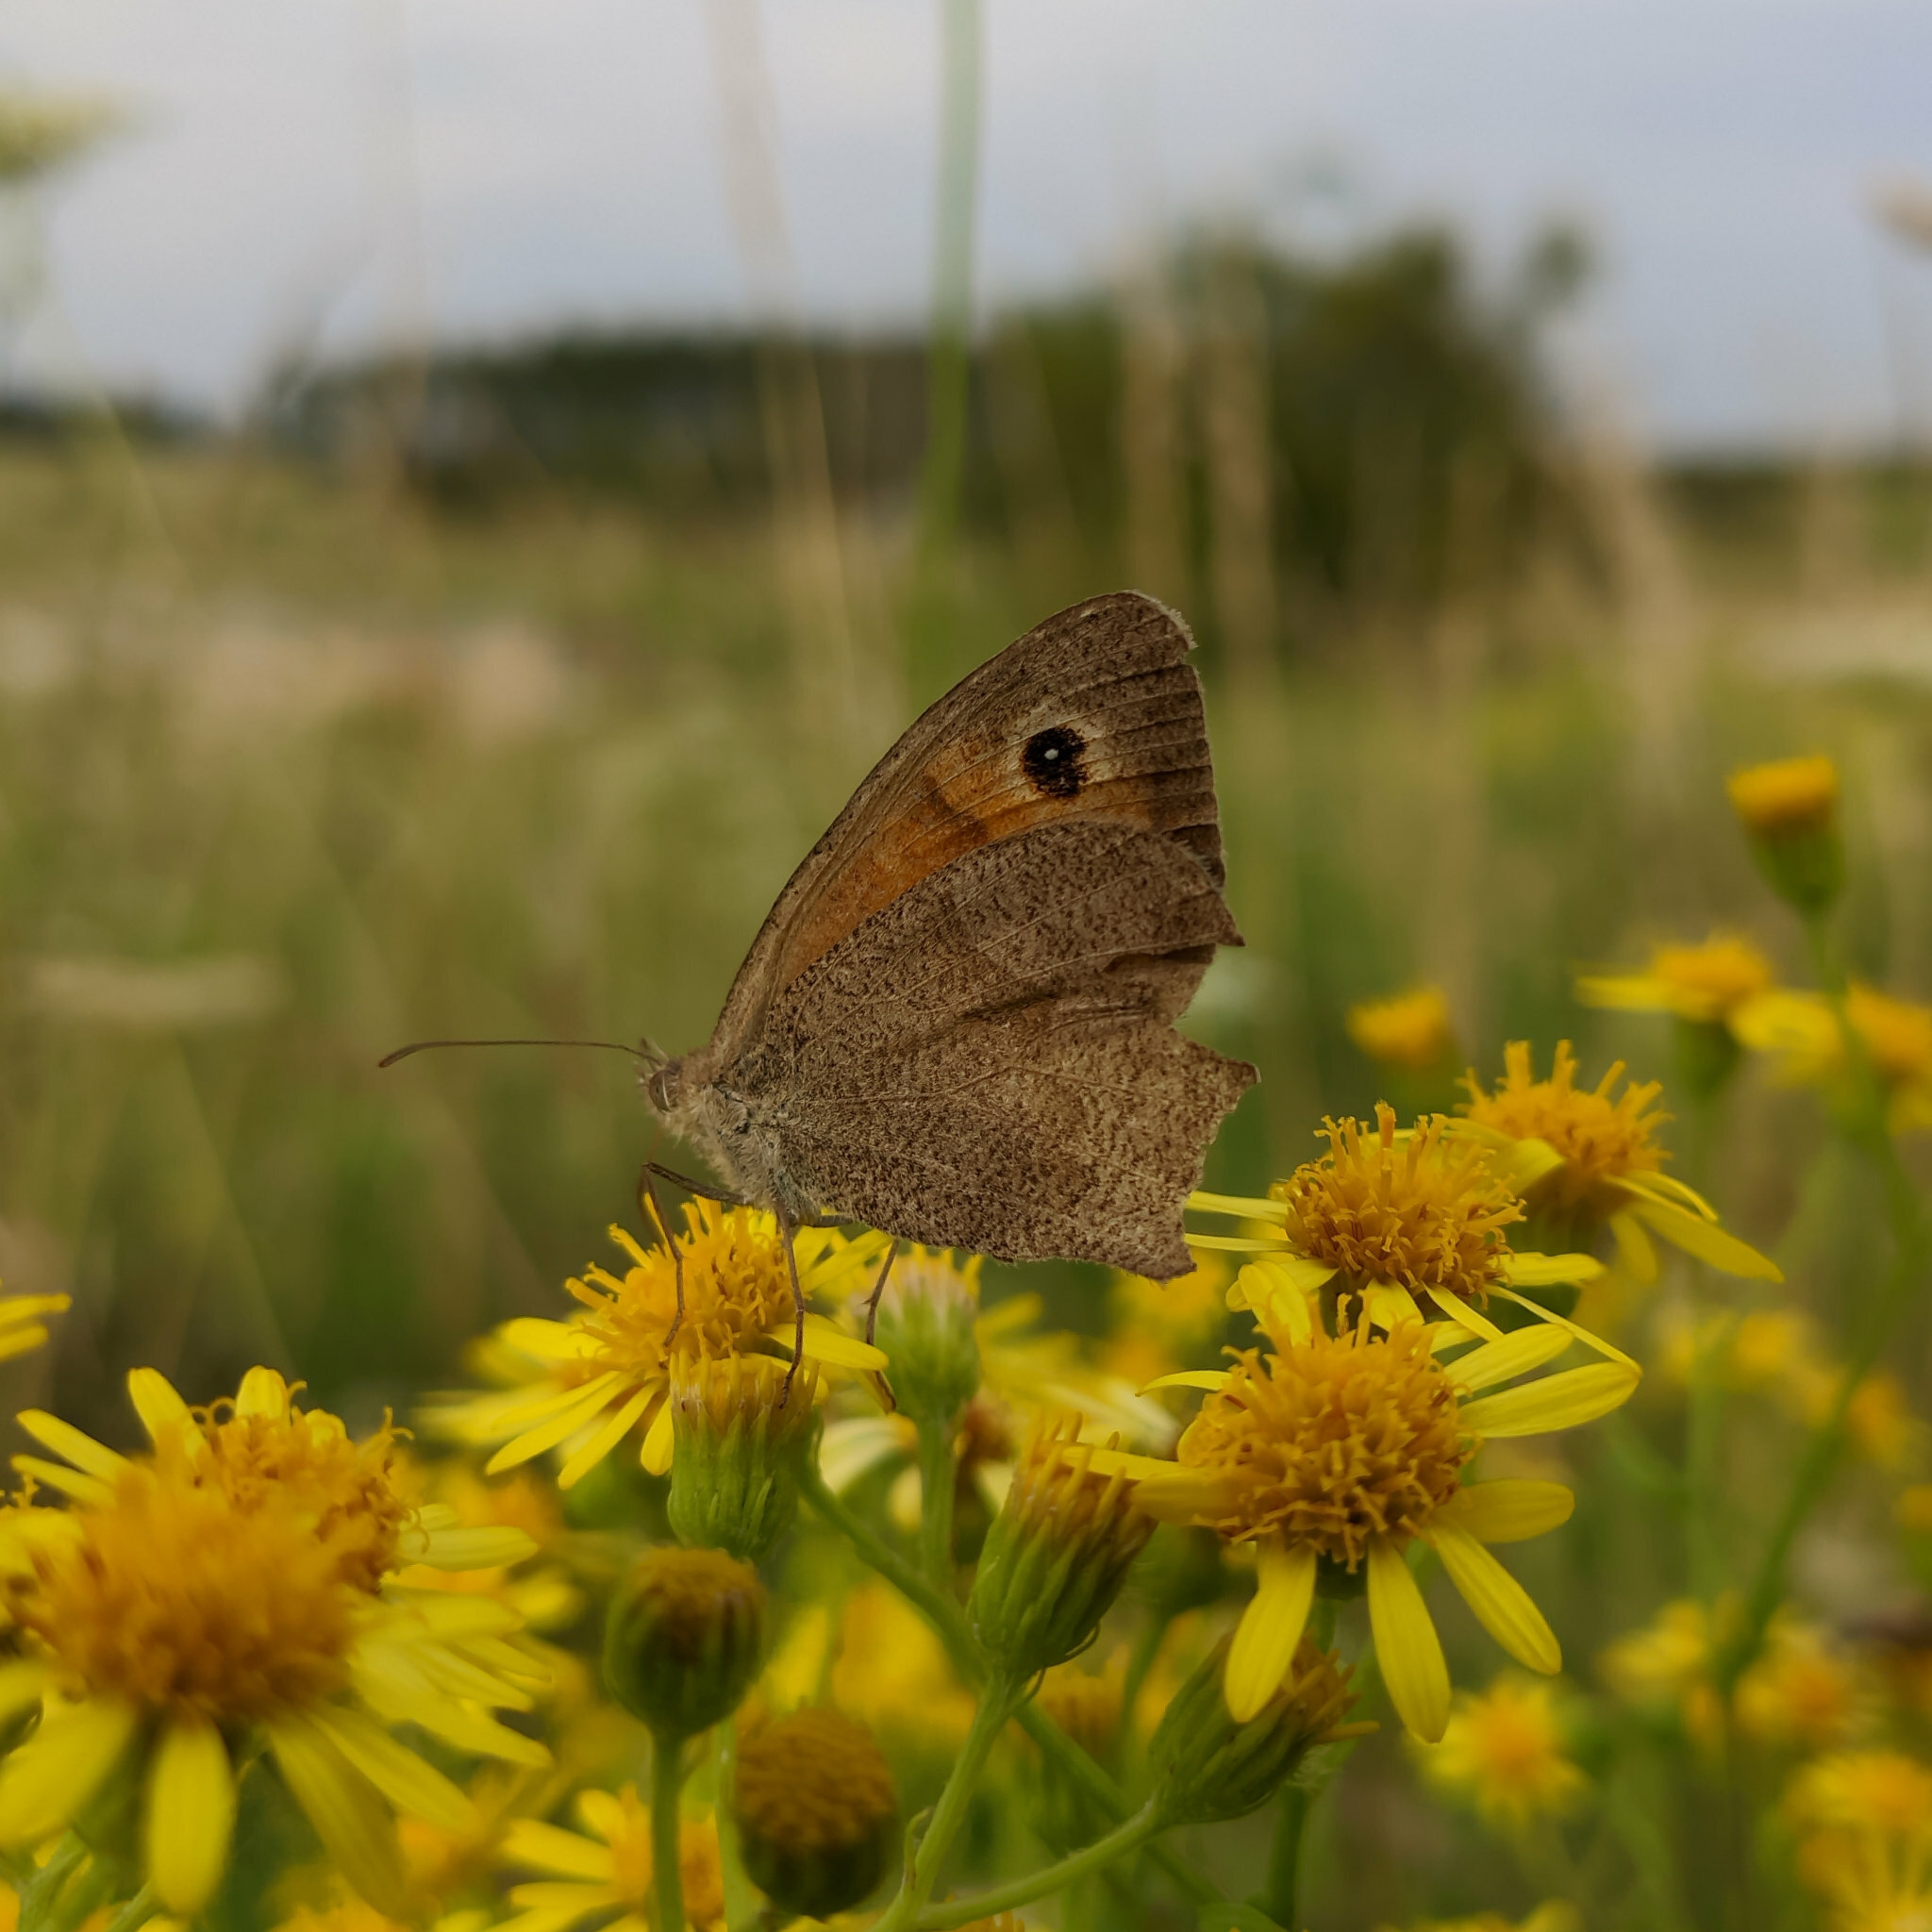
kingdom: Animalia
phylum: Arthropoda
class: Insecta
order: Lepidoptera
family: Nymphalidae
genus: Maniola
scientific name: Maniola jurtina
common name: Meadow brown
